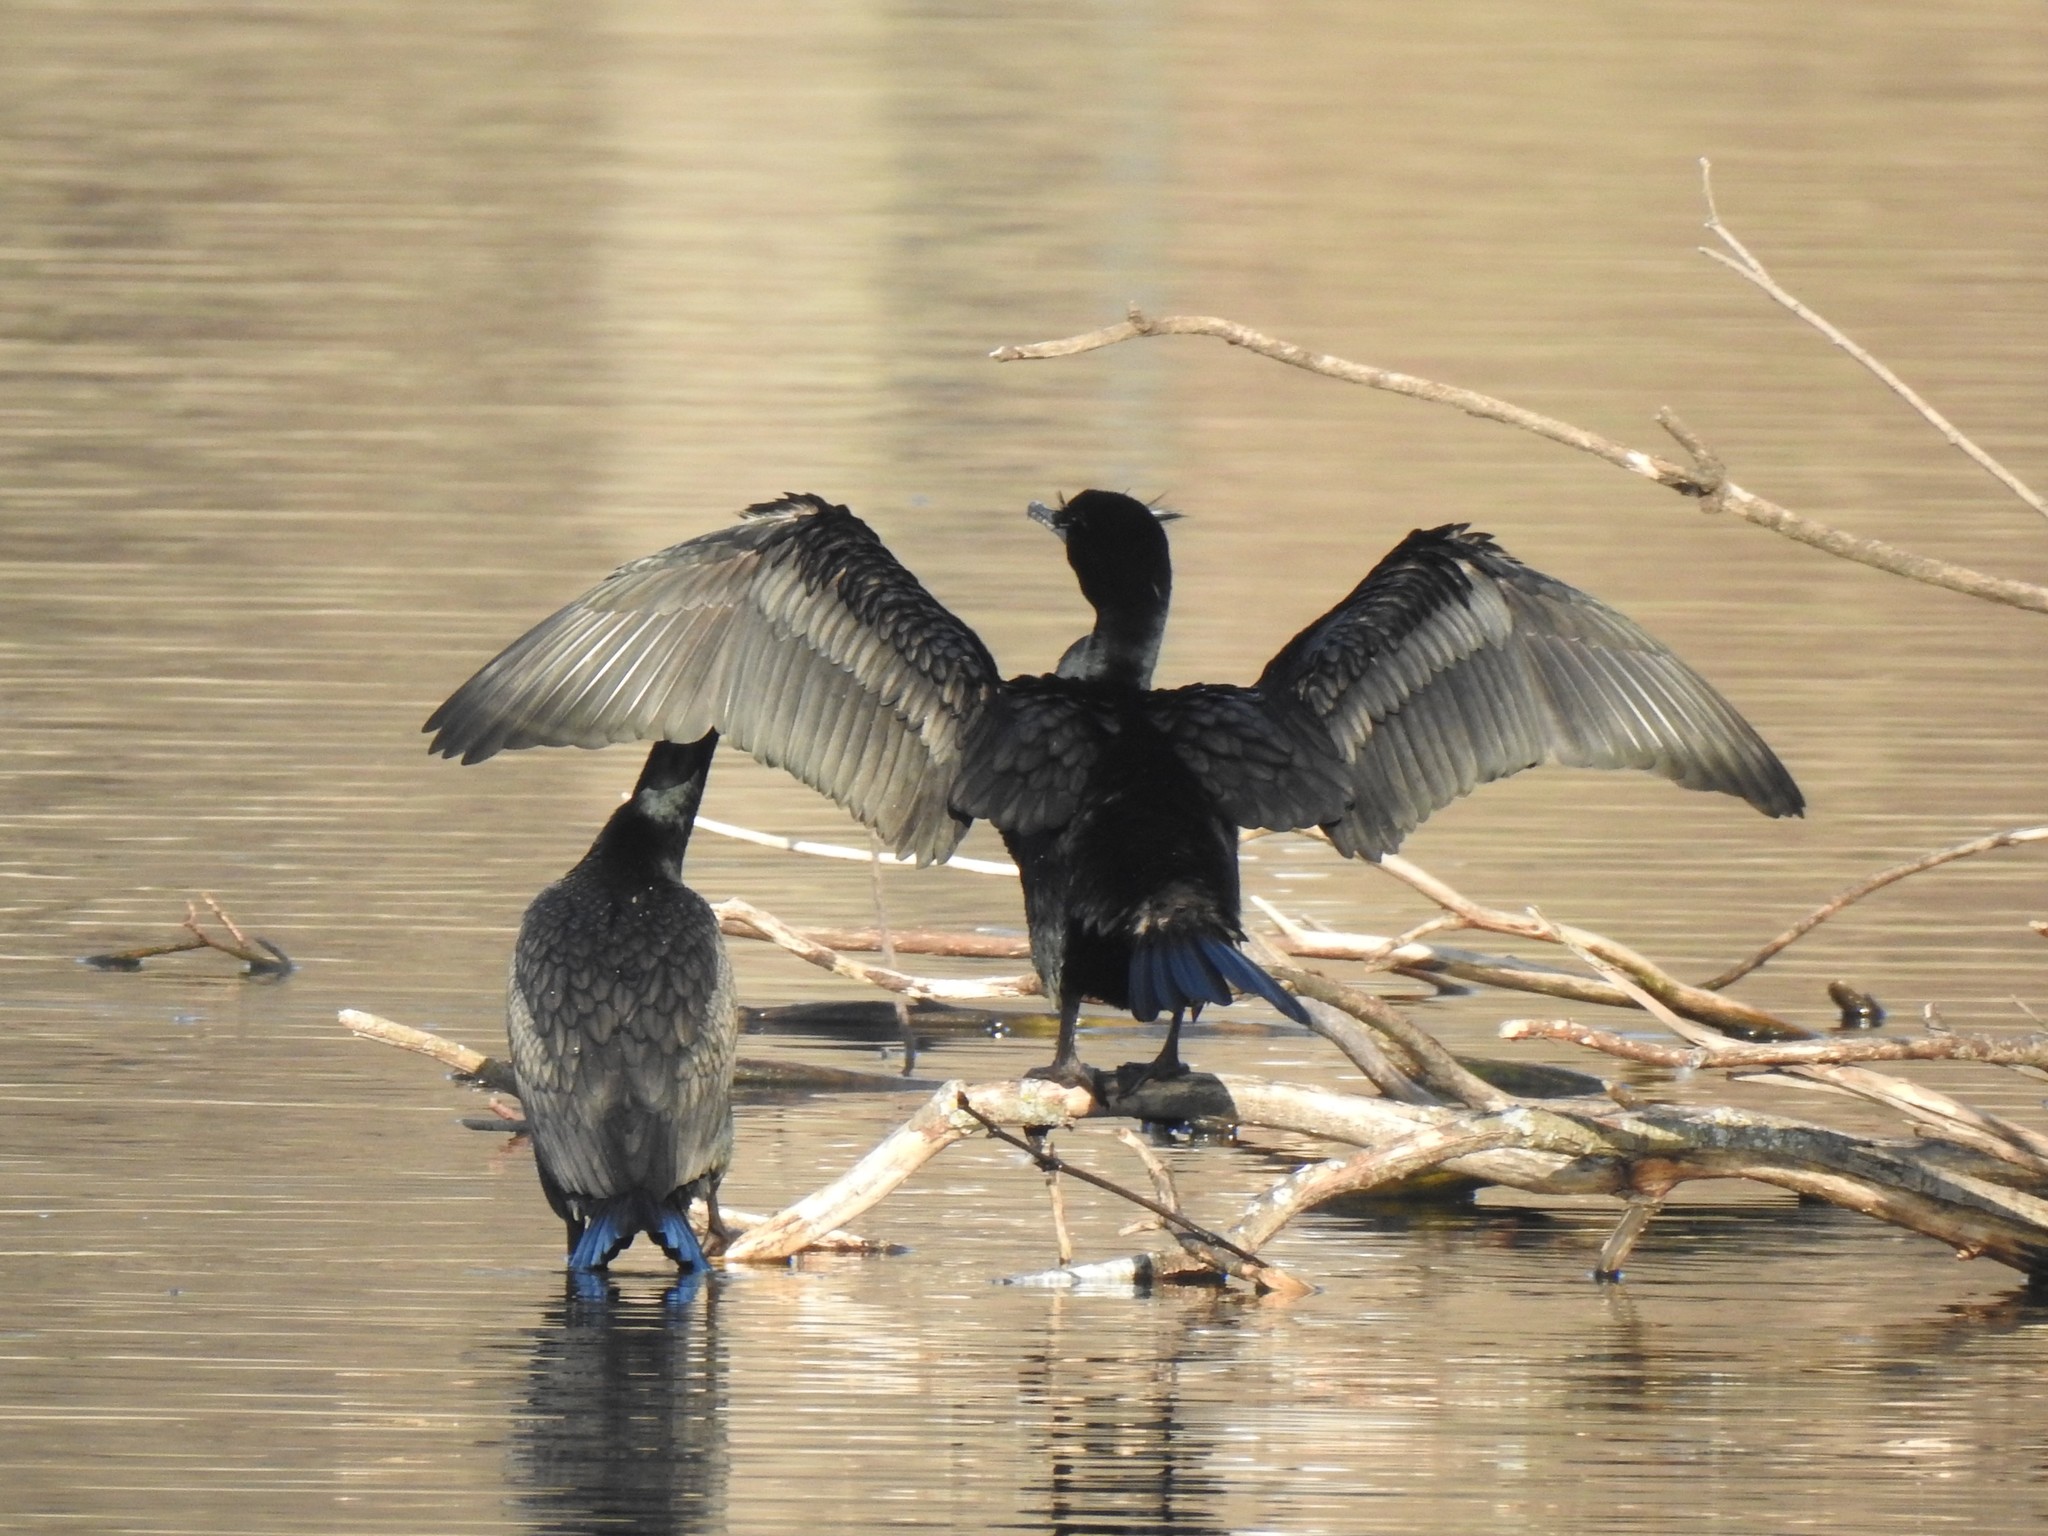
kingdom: Animalia
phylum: Chordata
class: Aves
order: Suliformes
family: Phalacrocoracidae
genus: Phalacrocorax
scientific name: Phalacrocorax auritus
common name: Double-crested cormorant
